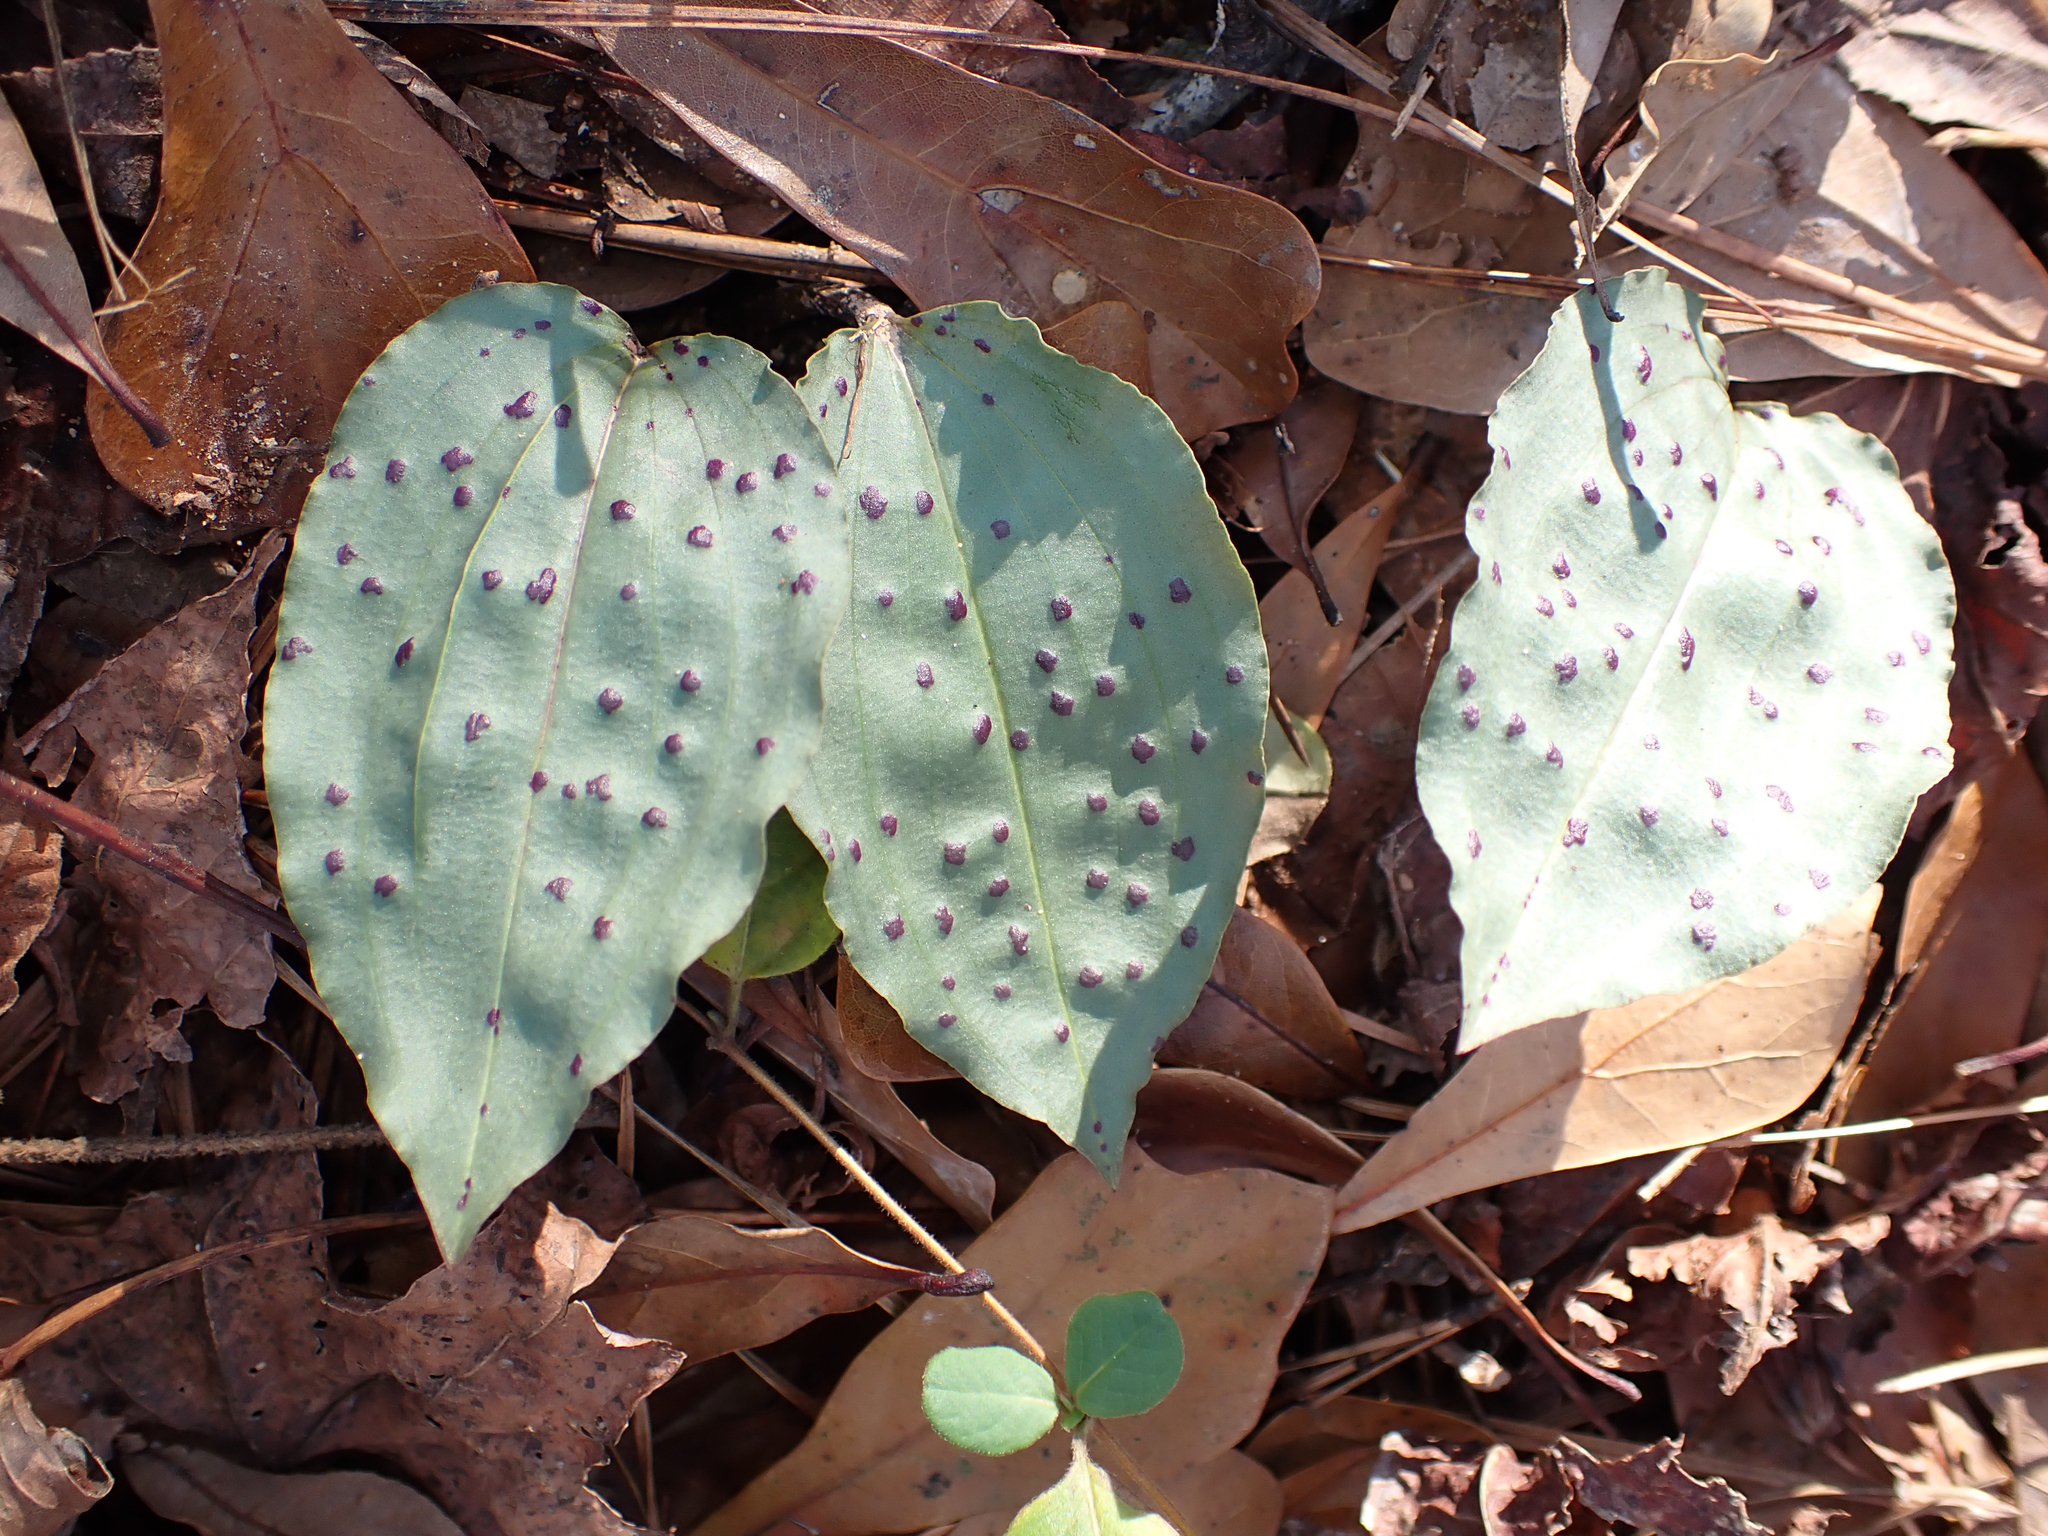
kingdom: Plantae
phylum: Tracheophyta
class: Liliopsida
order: Asparagales
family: Orchidaceae
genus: Tipularia
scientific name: Tipularia discolor
